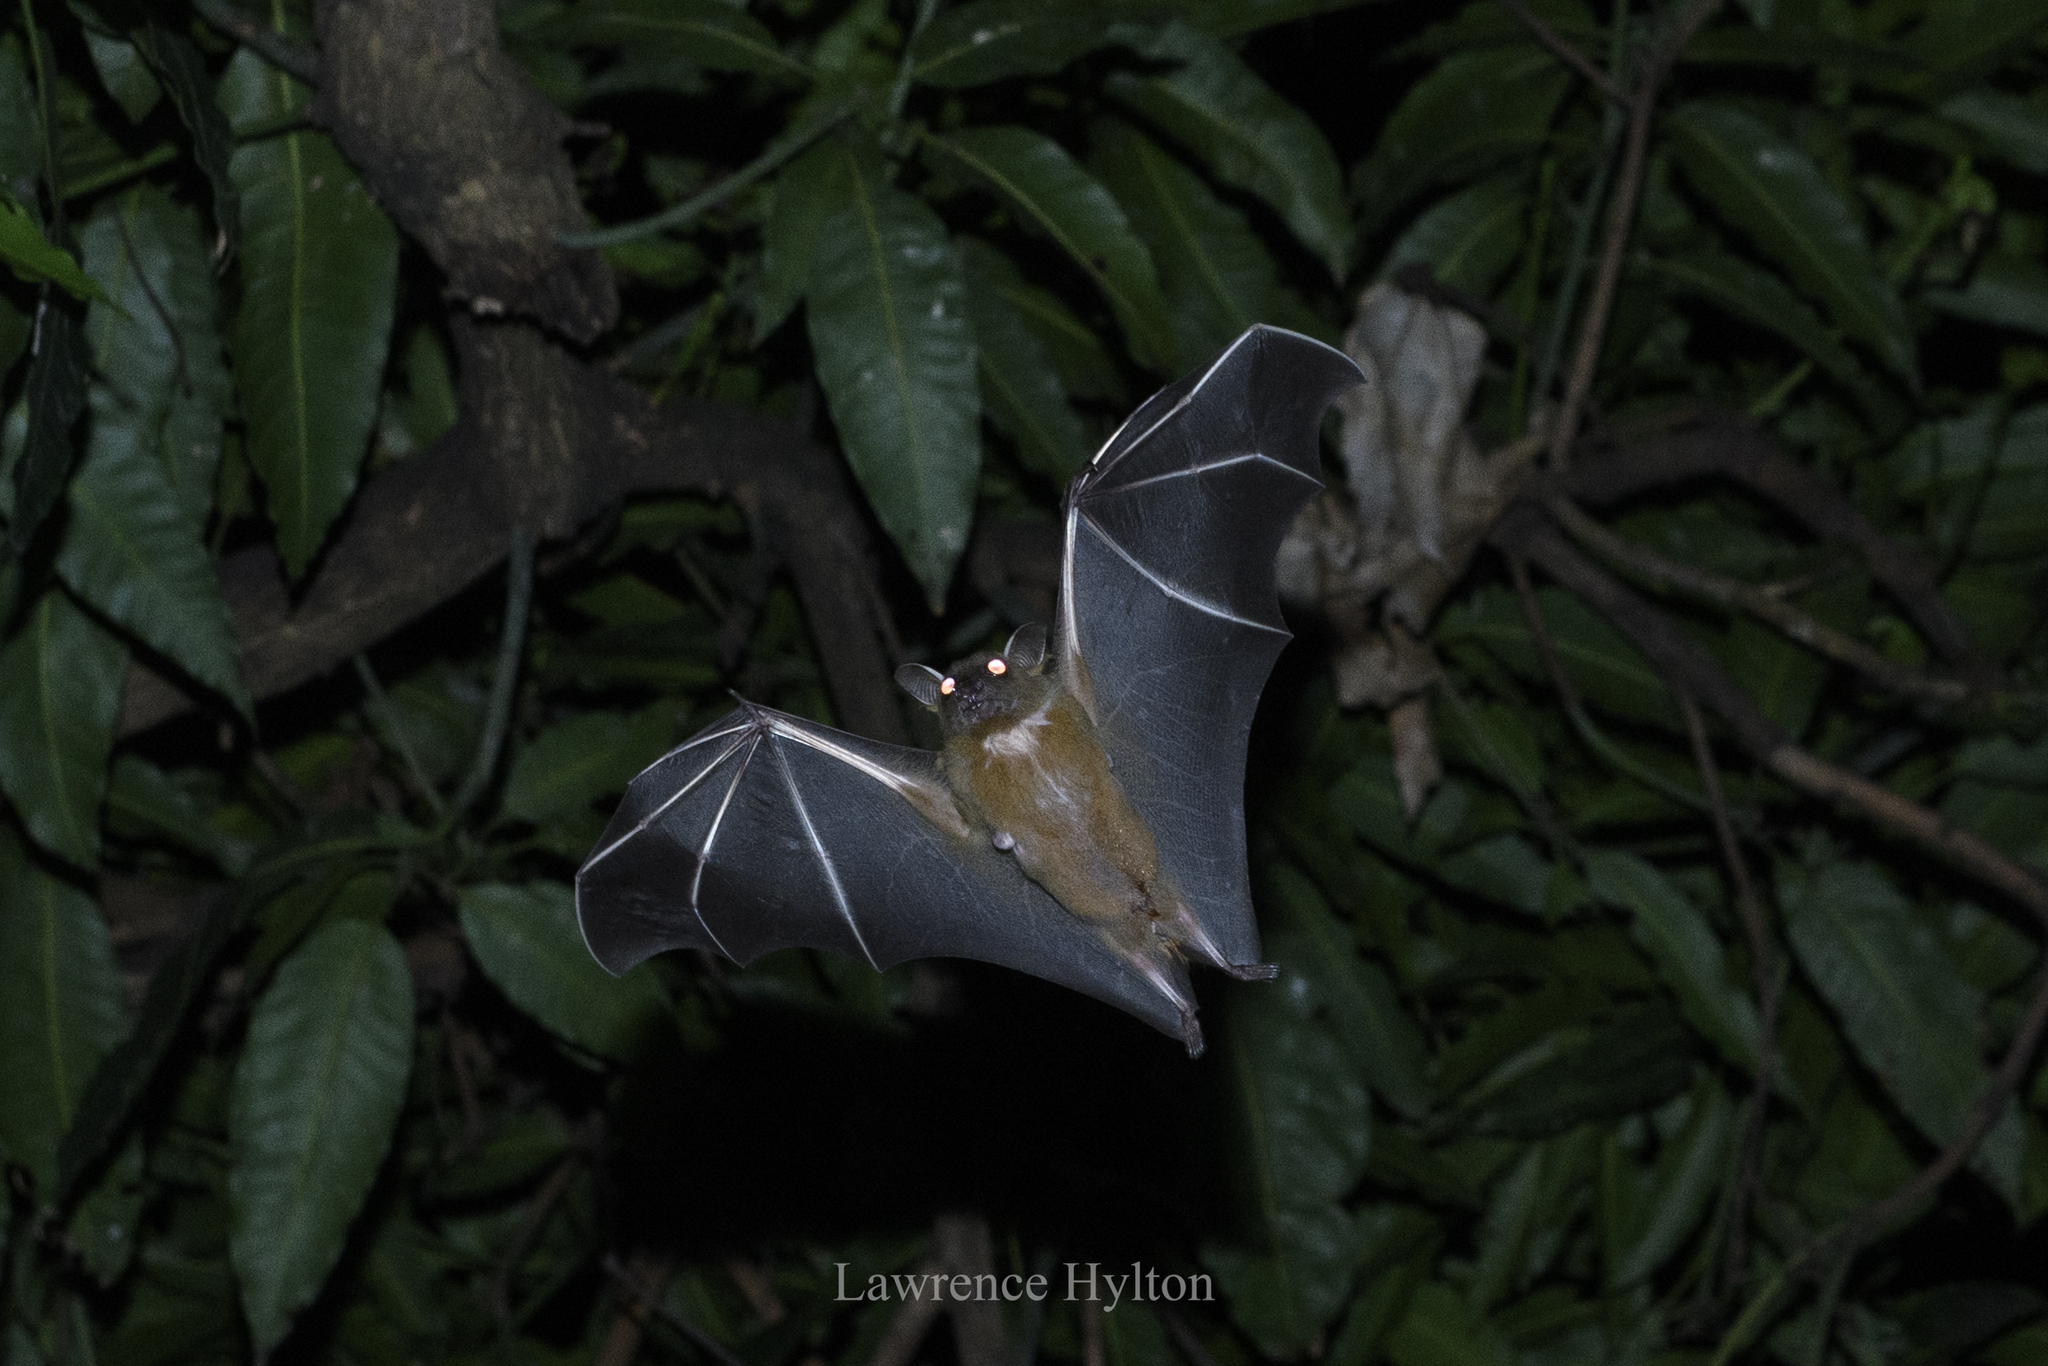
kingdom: Animalia
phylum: Chordata
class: Mammalia
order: Chiroptera
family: Pteropodidae
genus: Cynopterus
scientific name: Cynopterus sphinx
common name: Greater short-nosed fruit bat
